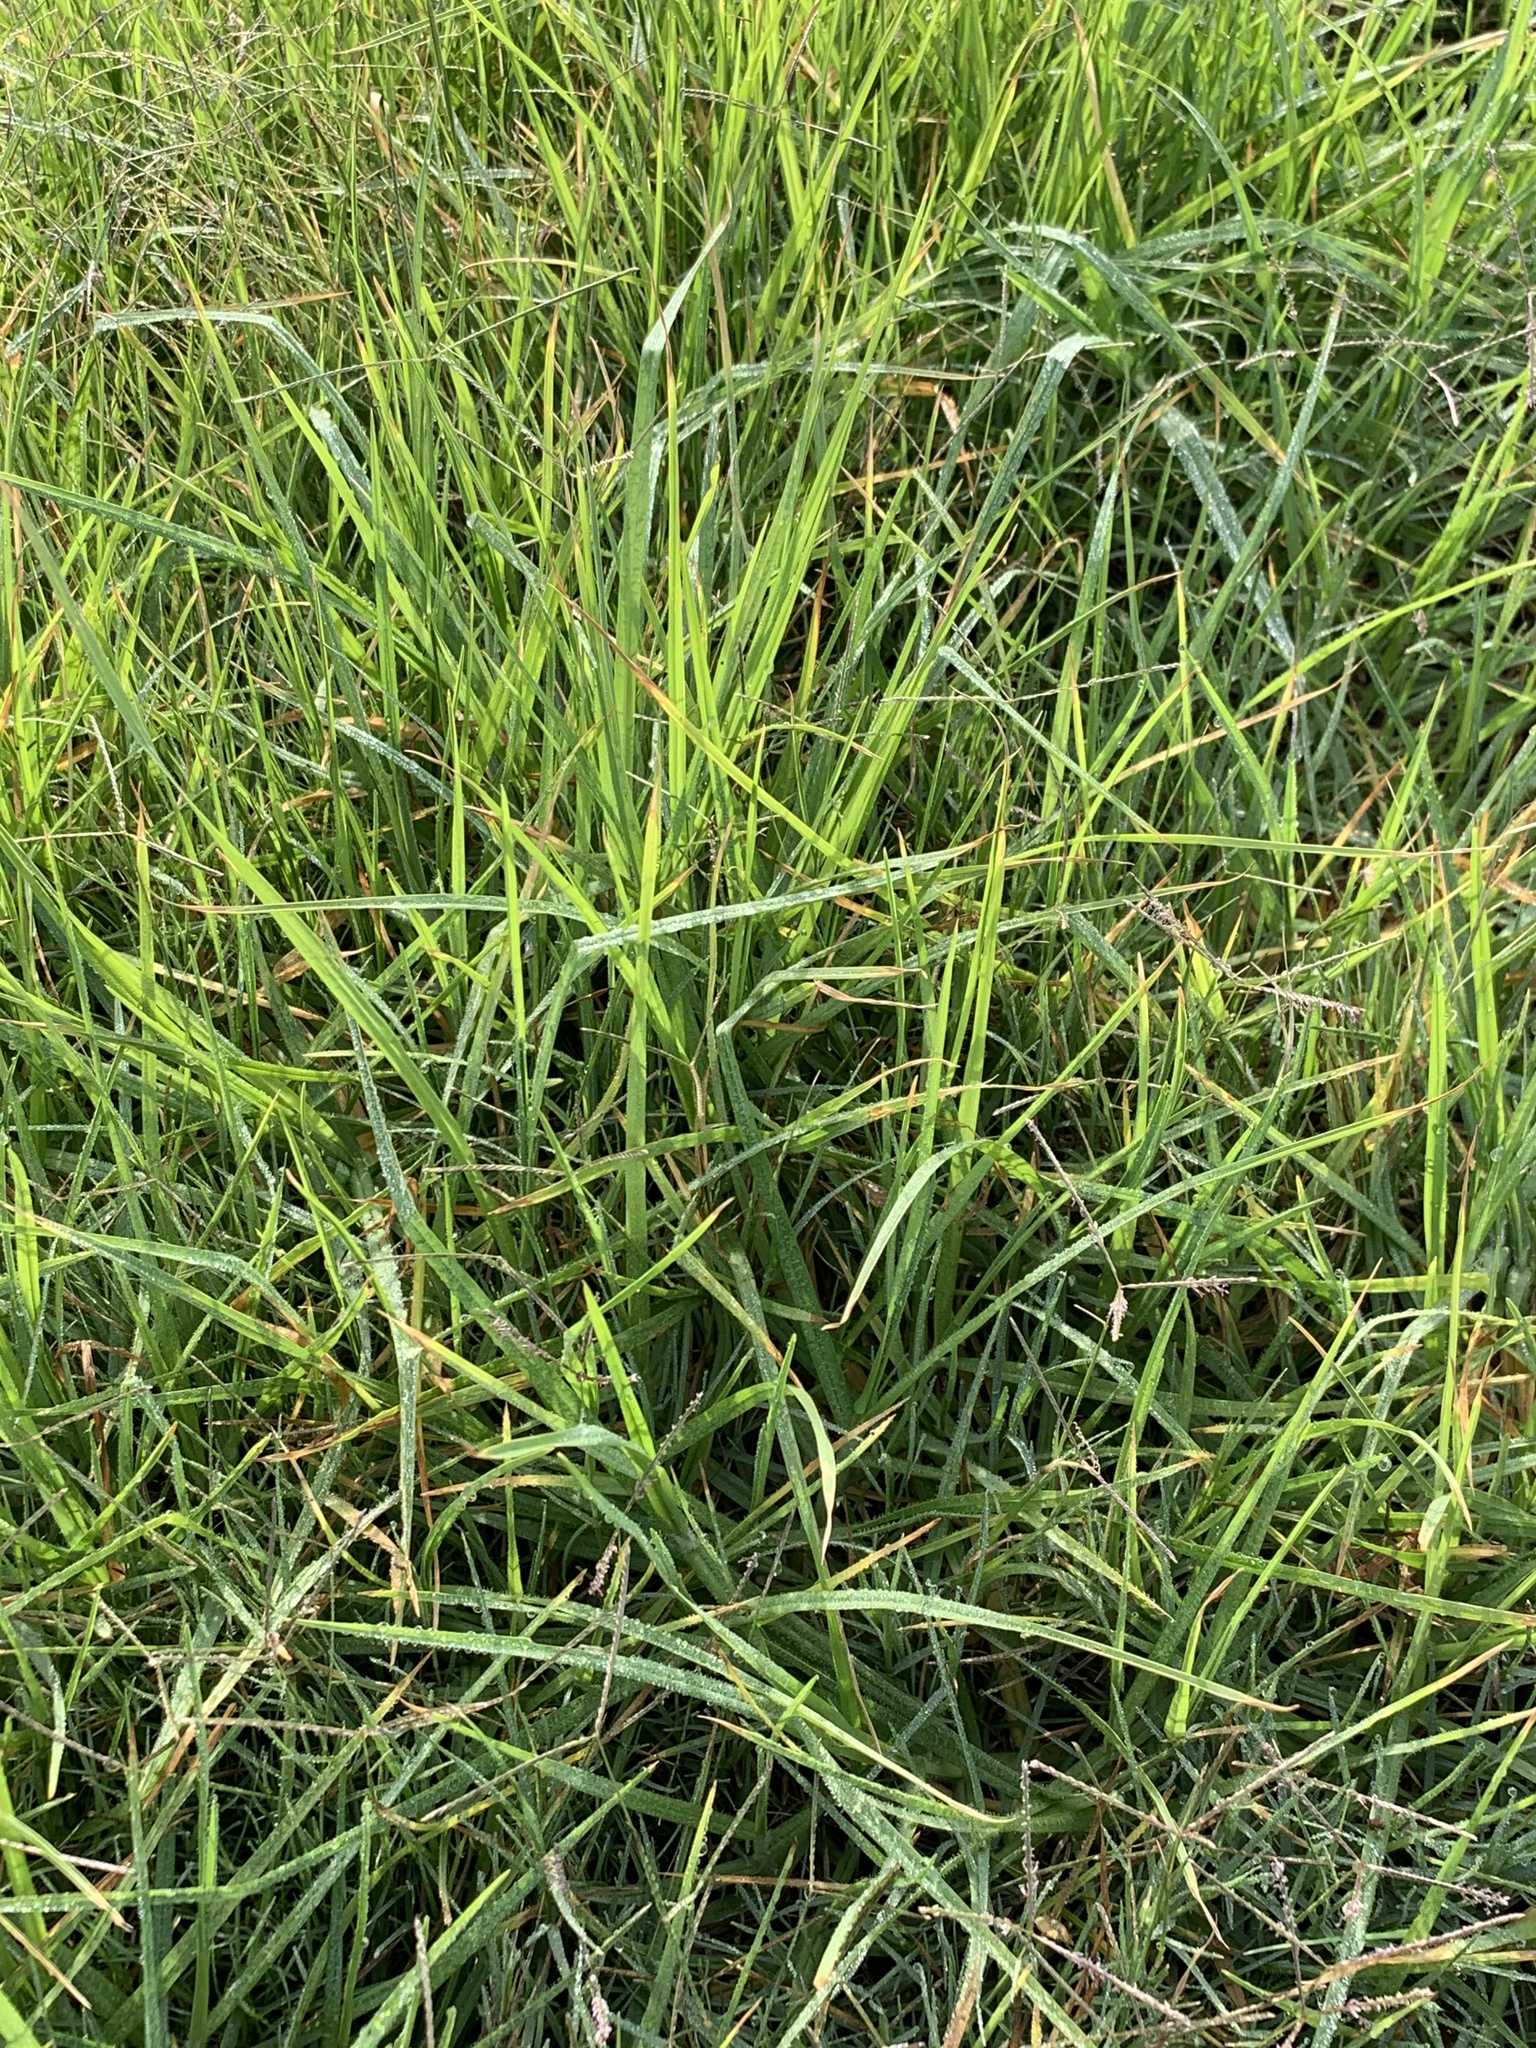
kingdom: Plantae
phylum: Tracheophyta
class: Liliopsida
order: Poales
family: Poaceae
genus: Cenchrus
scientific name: Cenchrus clandestinus
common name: Kikuyugrass
